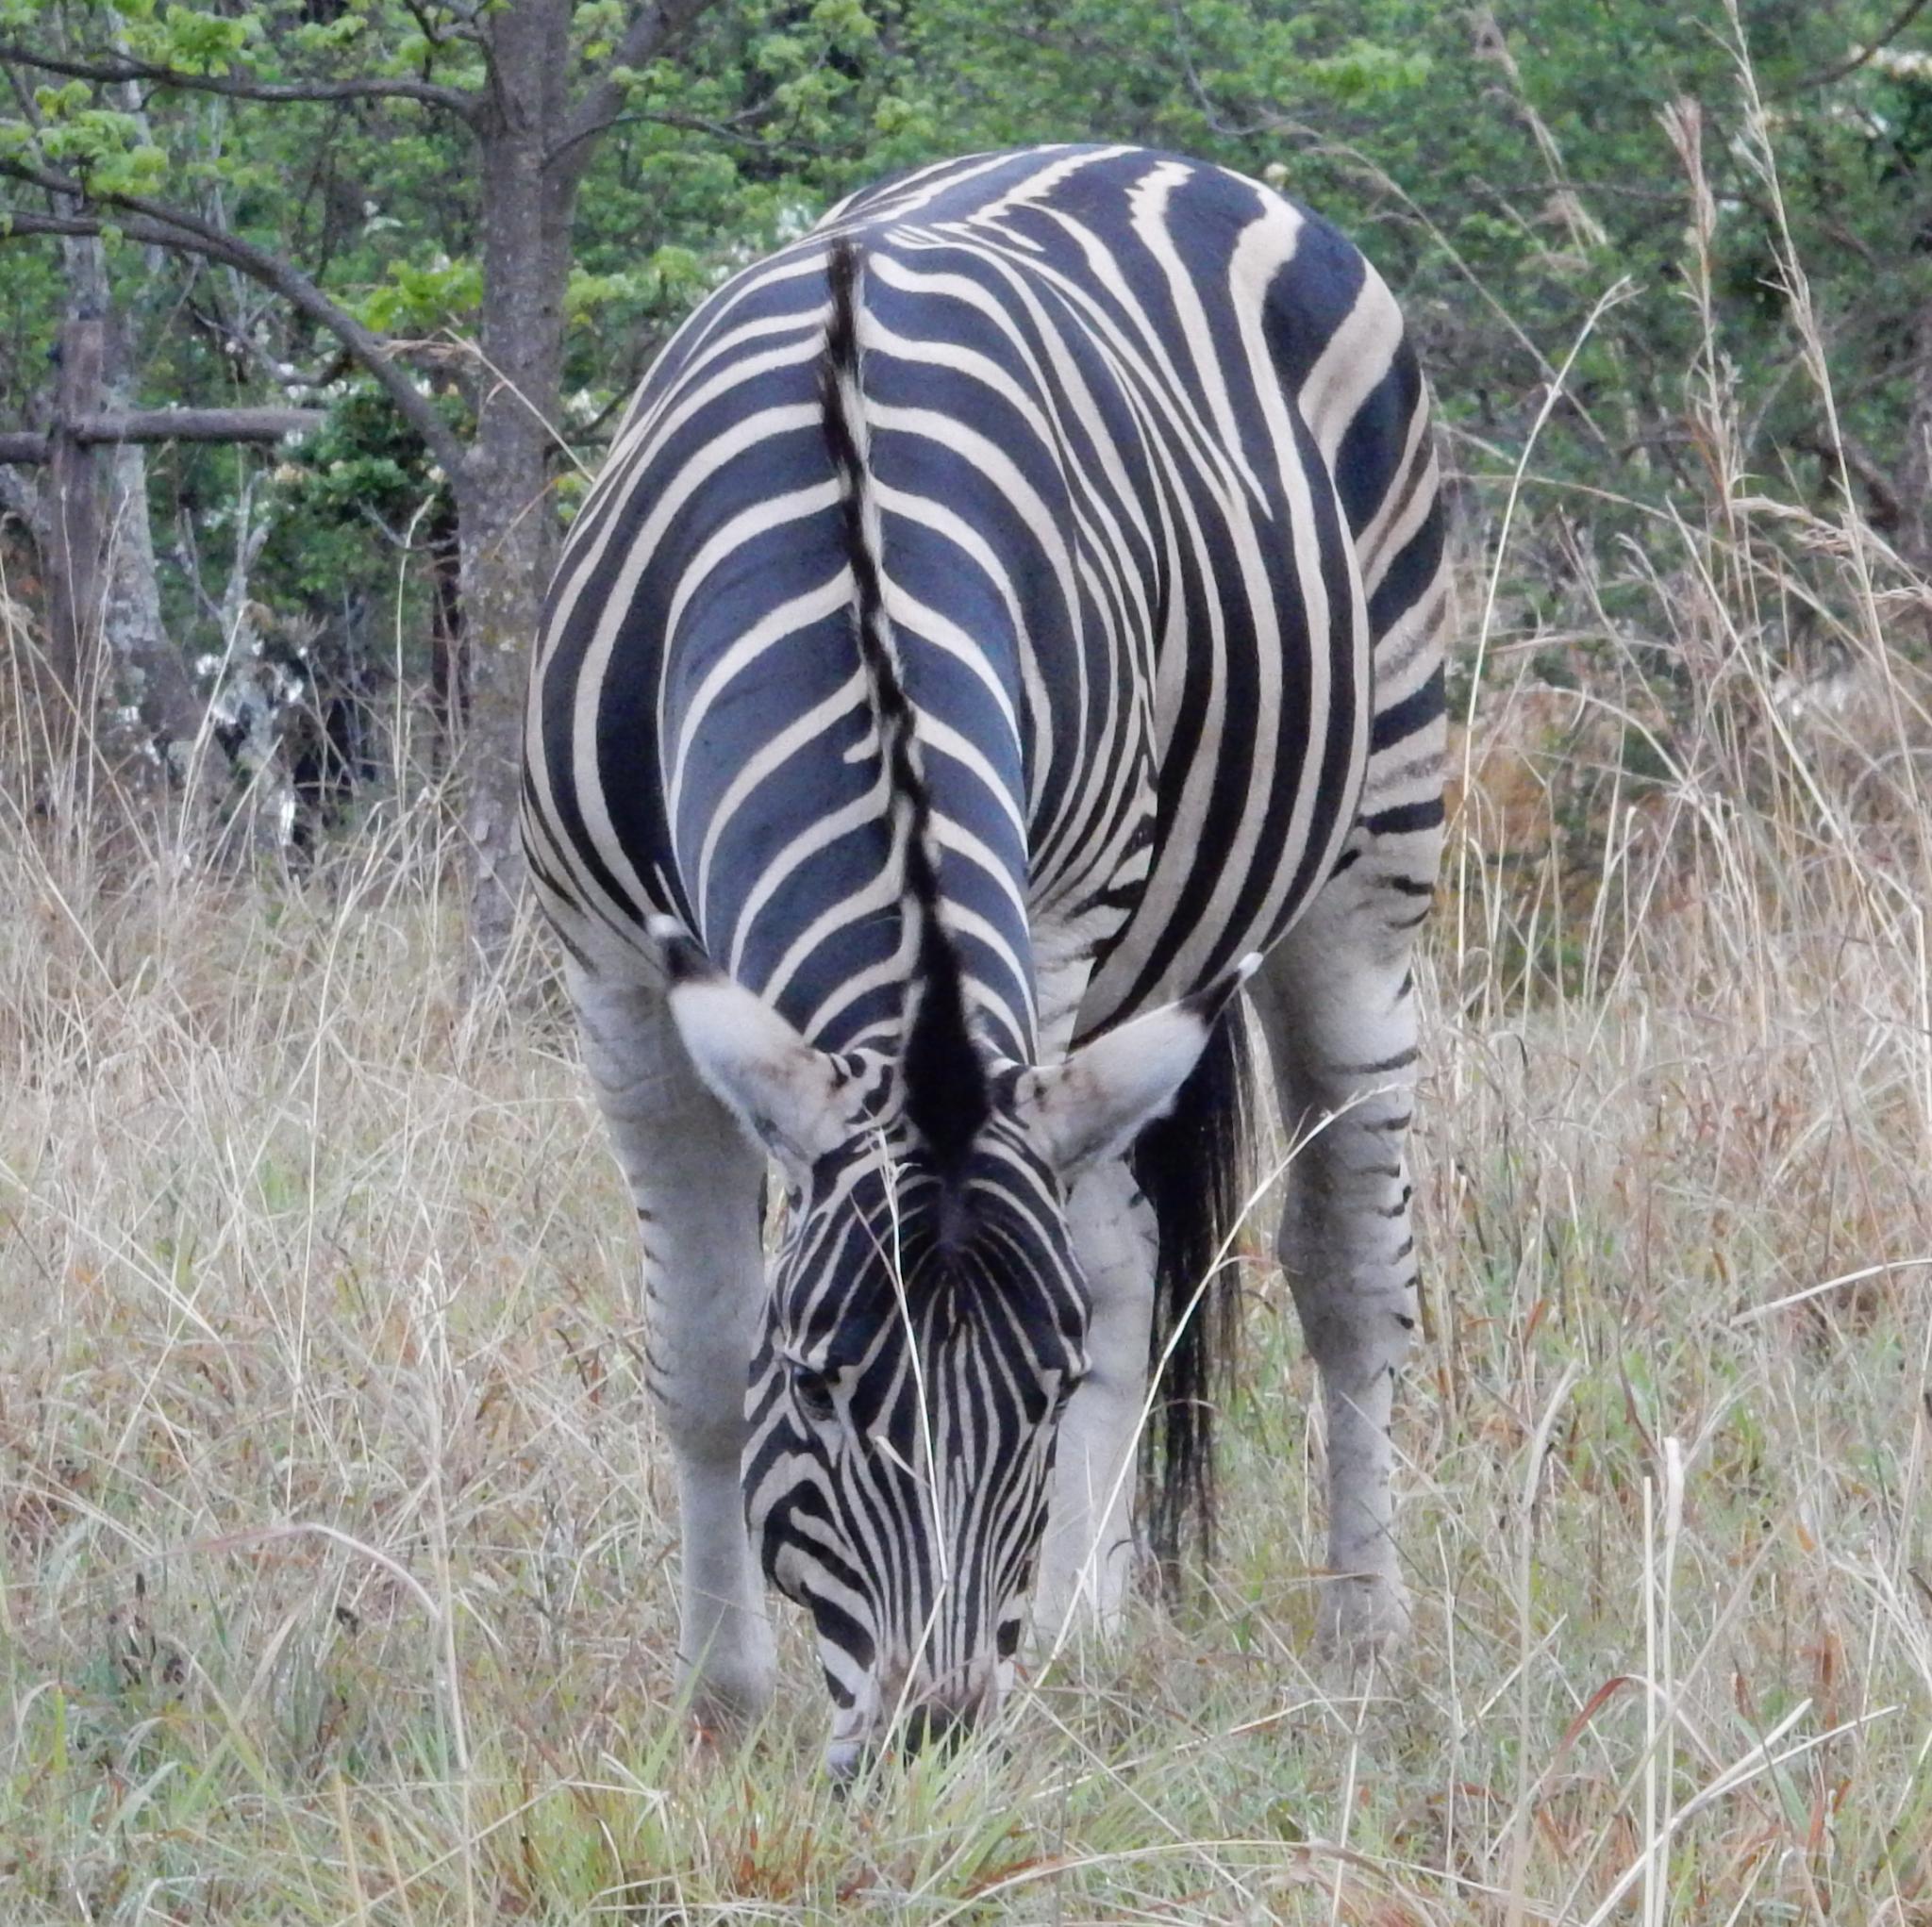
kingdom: Animalia
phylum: Chordata
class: Mammalia
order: Perissodactyla
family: Equidae
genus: Equus
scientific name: Equus quagga
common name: Plains zebra
